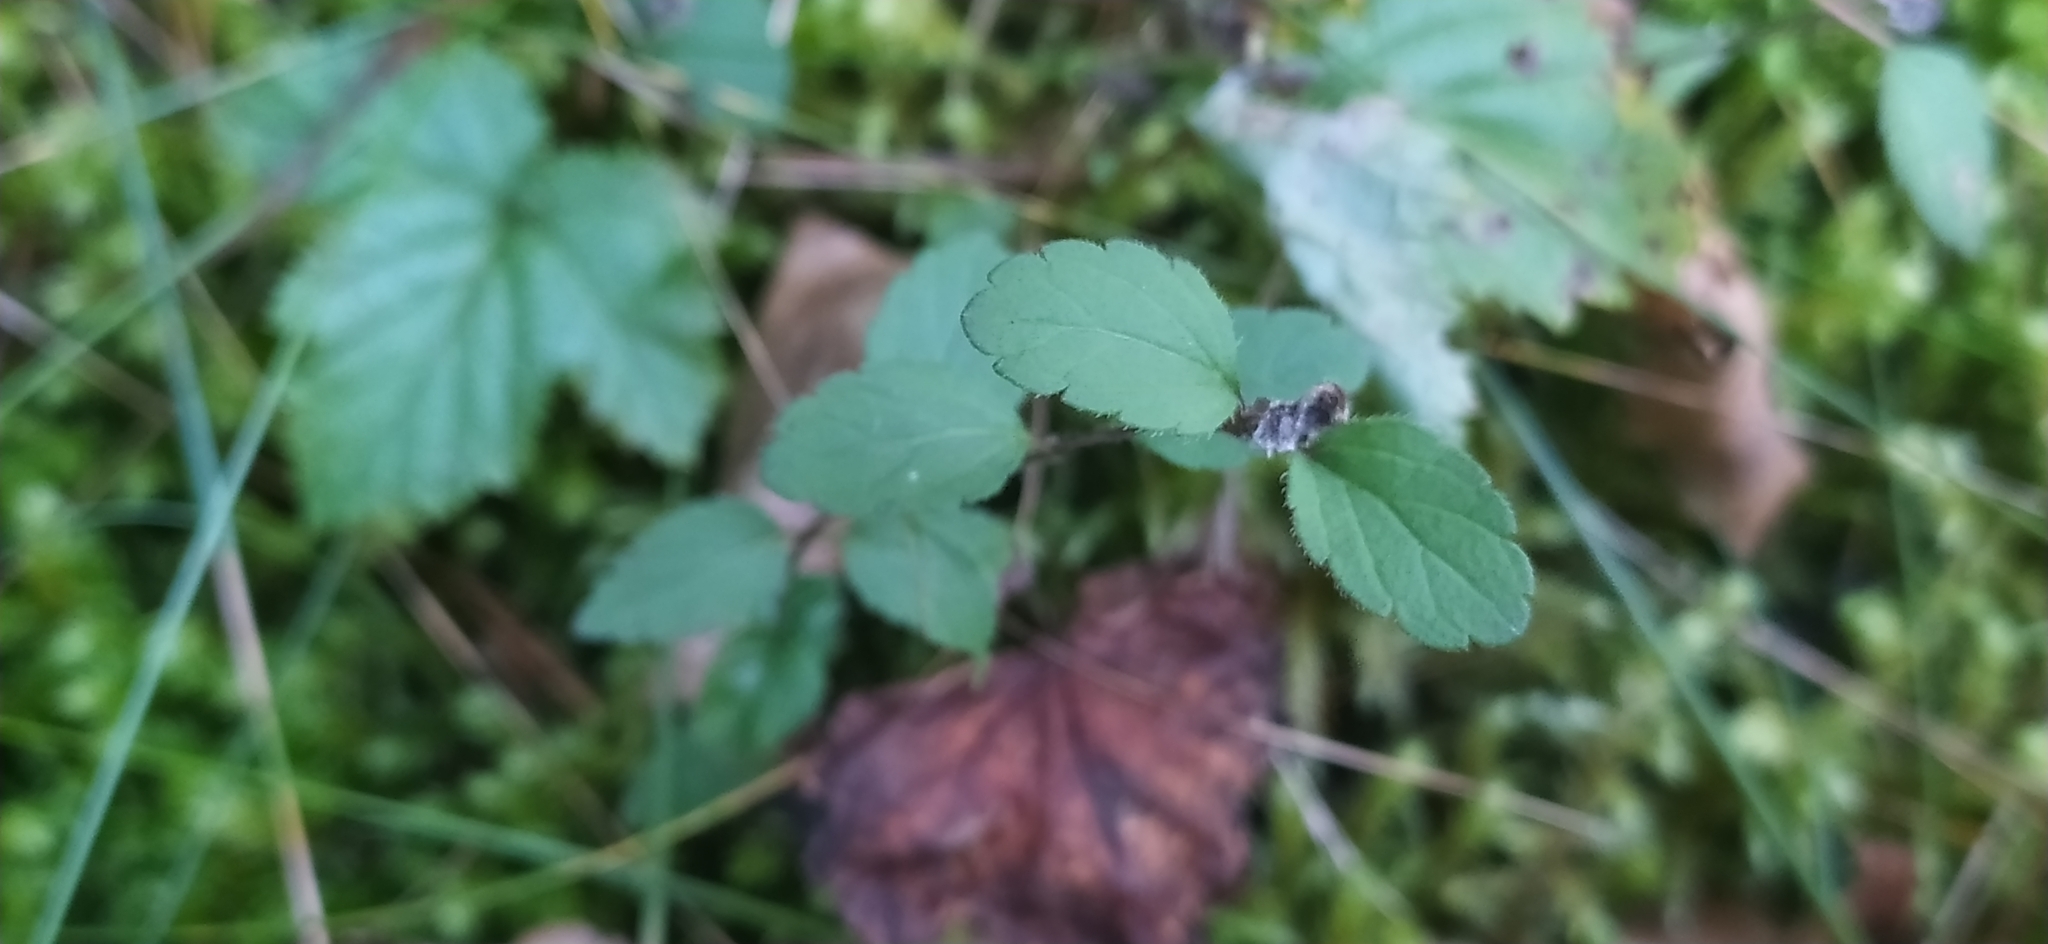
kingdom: Plantae
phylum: Tracheophyta
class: Magnoliopsida
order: Lamiales
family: Plantaginaceae
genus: Veronica
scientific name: Veronica chamaedrys
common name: Germander speedwell
